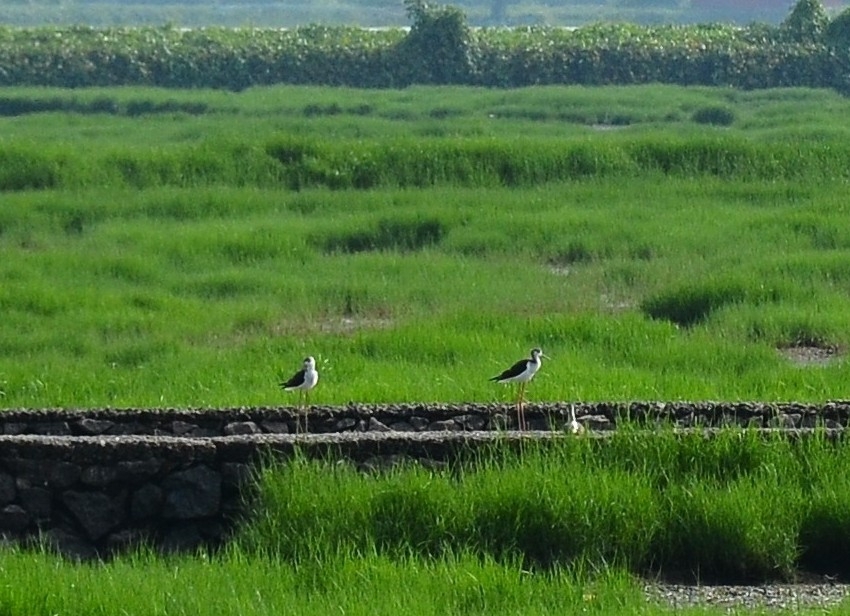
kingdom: Animalia
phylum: Chordata
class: Aves
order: Charadriiformes
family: Recurvirostridae
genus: Himantopus
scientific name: Himantopus himantopus
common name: Black-winged stilt
